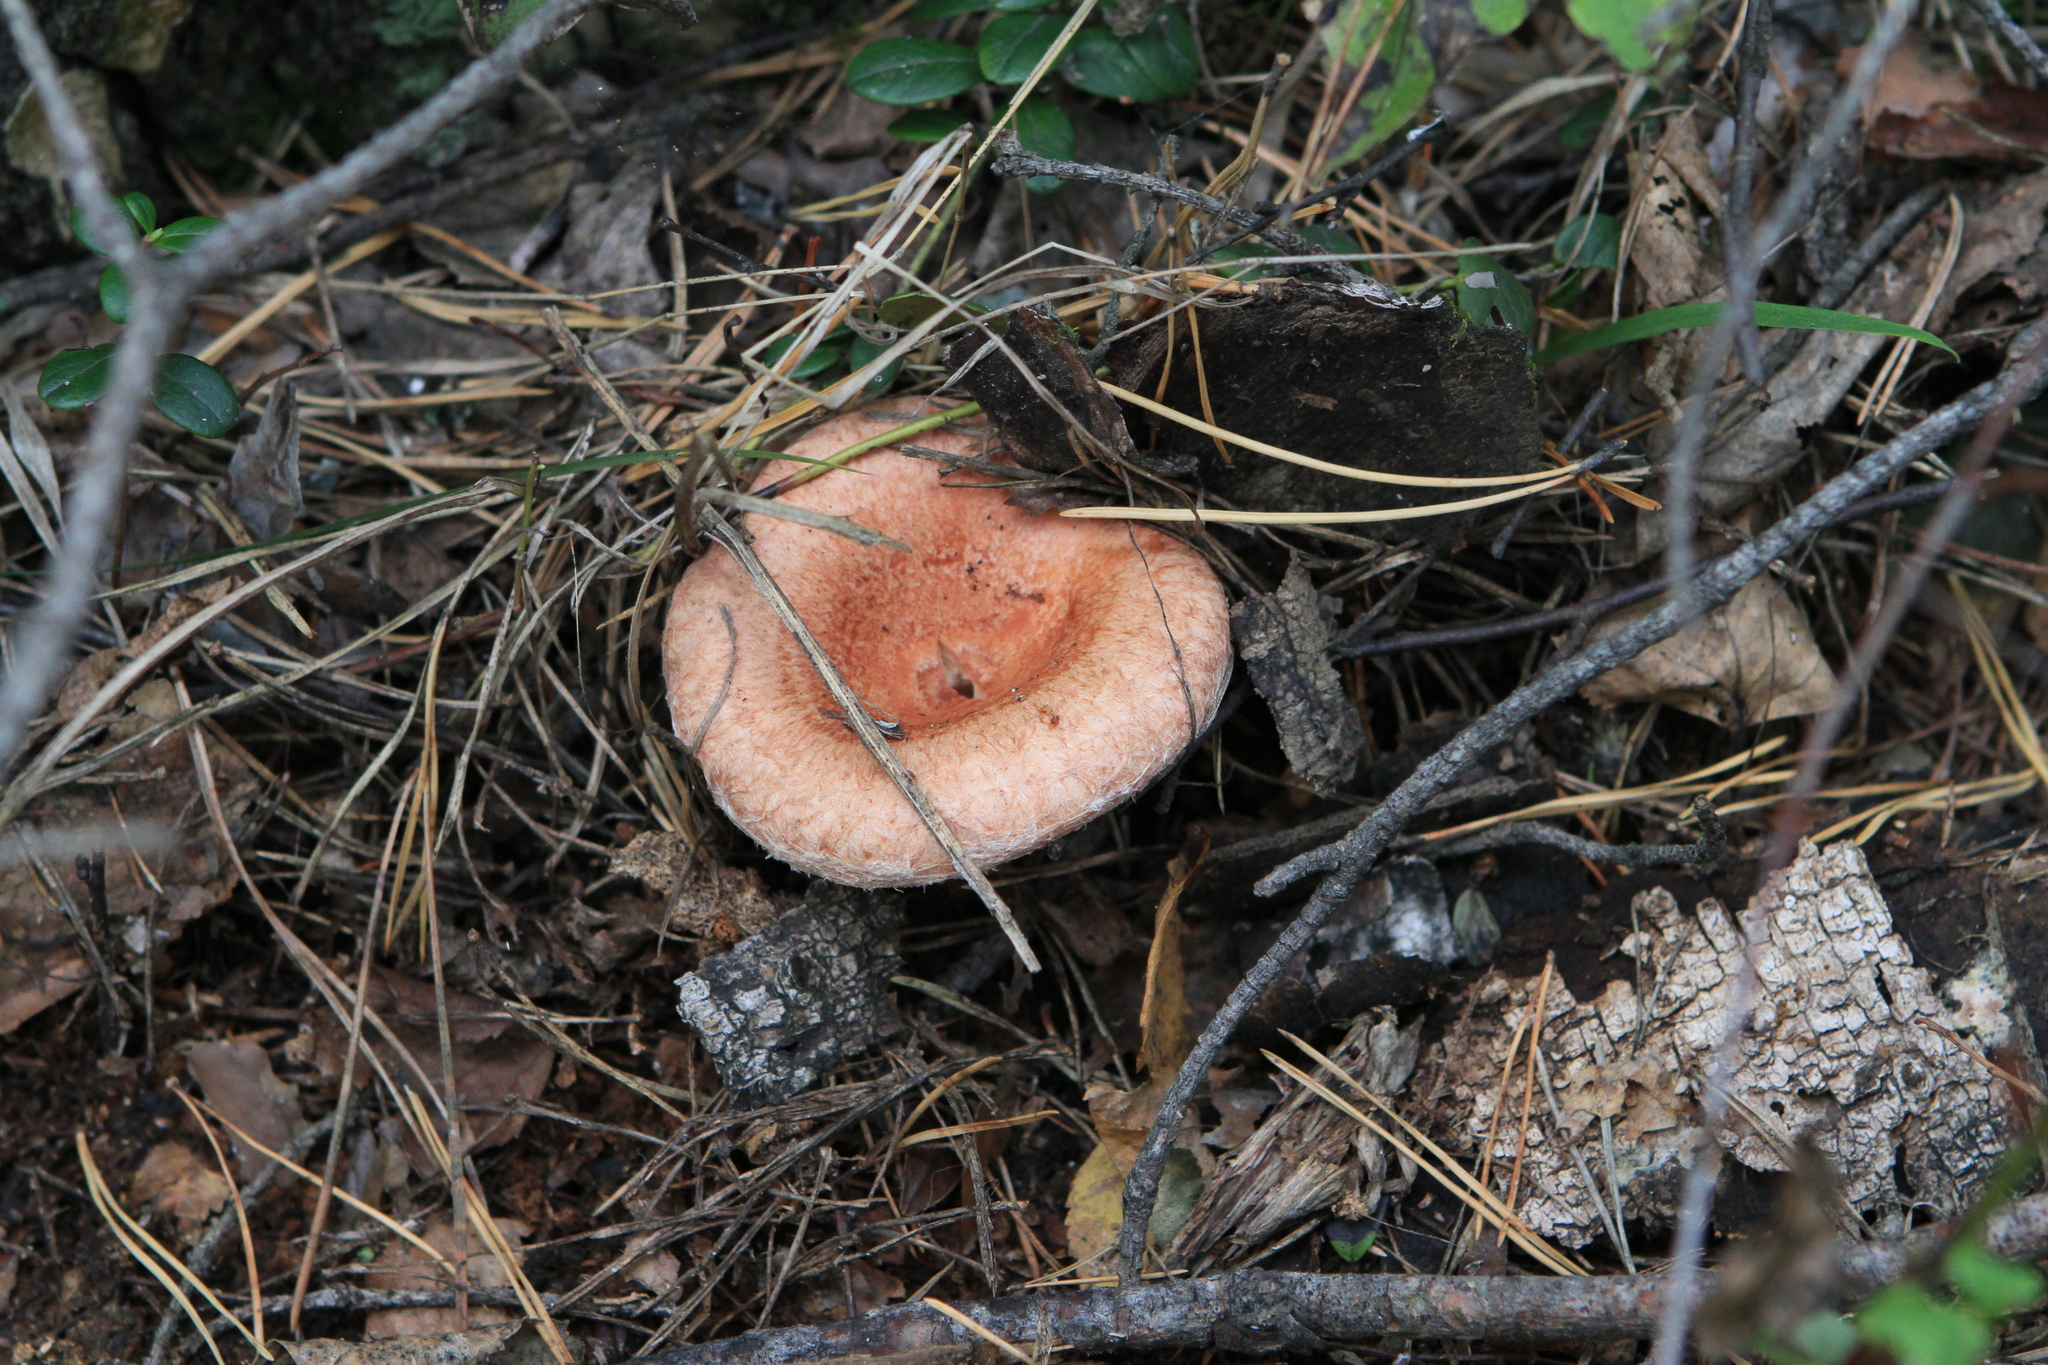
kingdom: Fungi
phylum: Basidiomycota
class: Agaricomycetes
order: Russulales
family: Russulaceae
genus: Lactarius
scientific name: Lactarius torminosus
